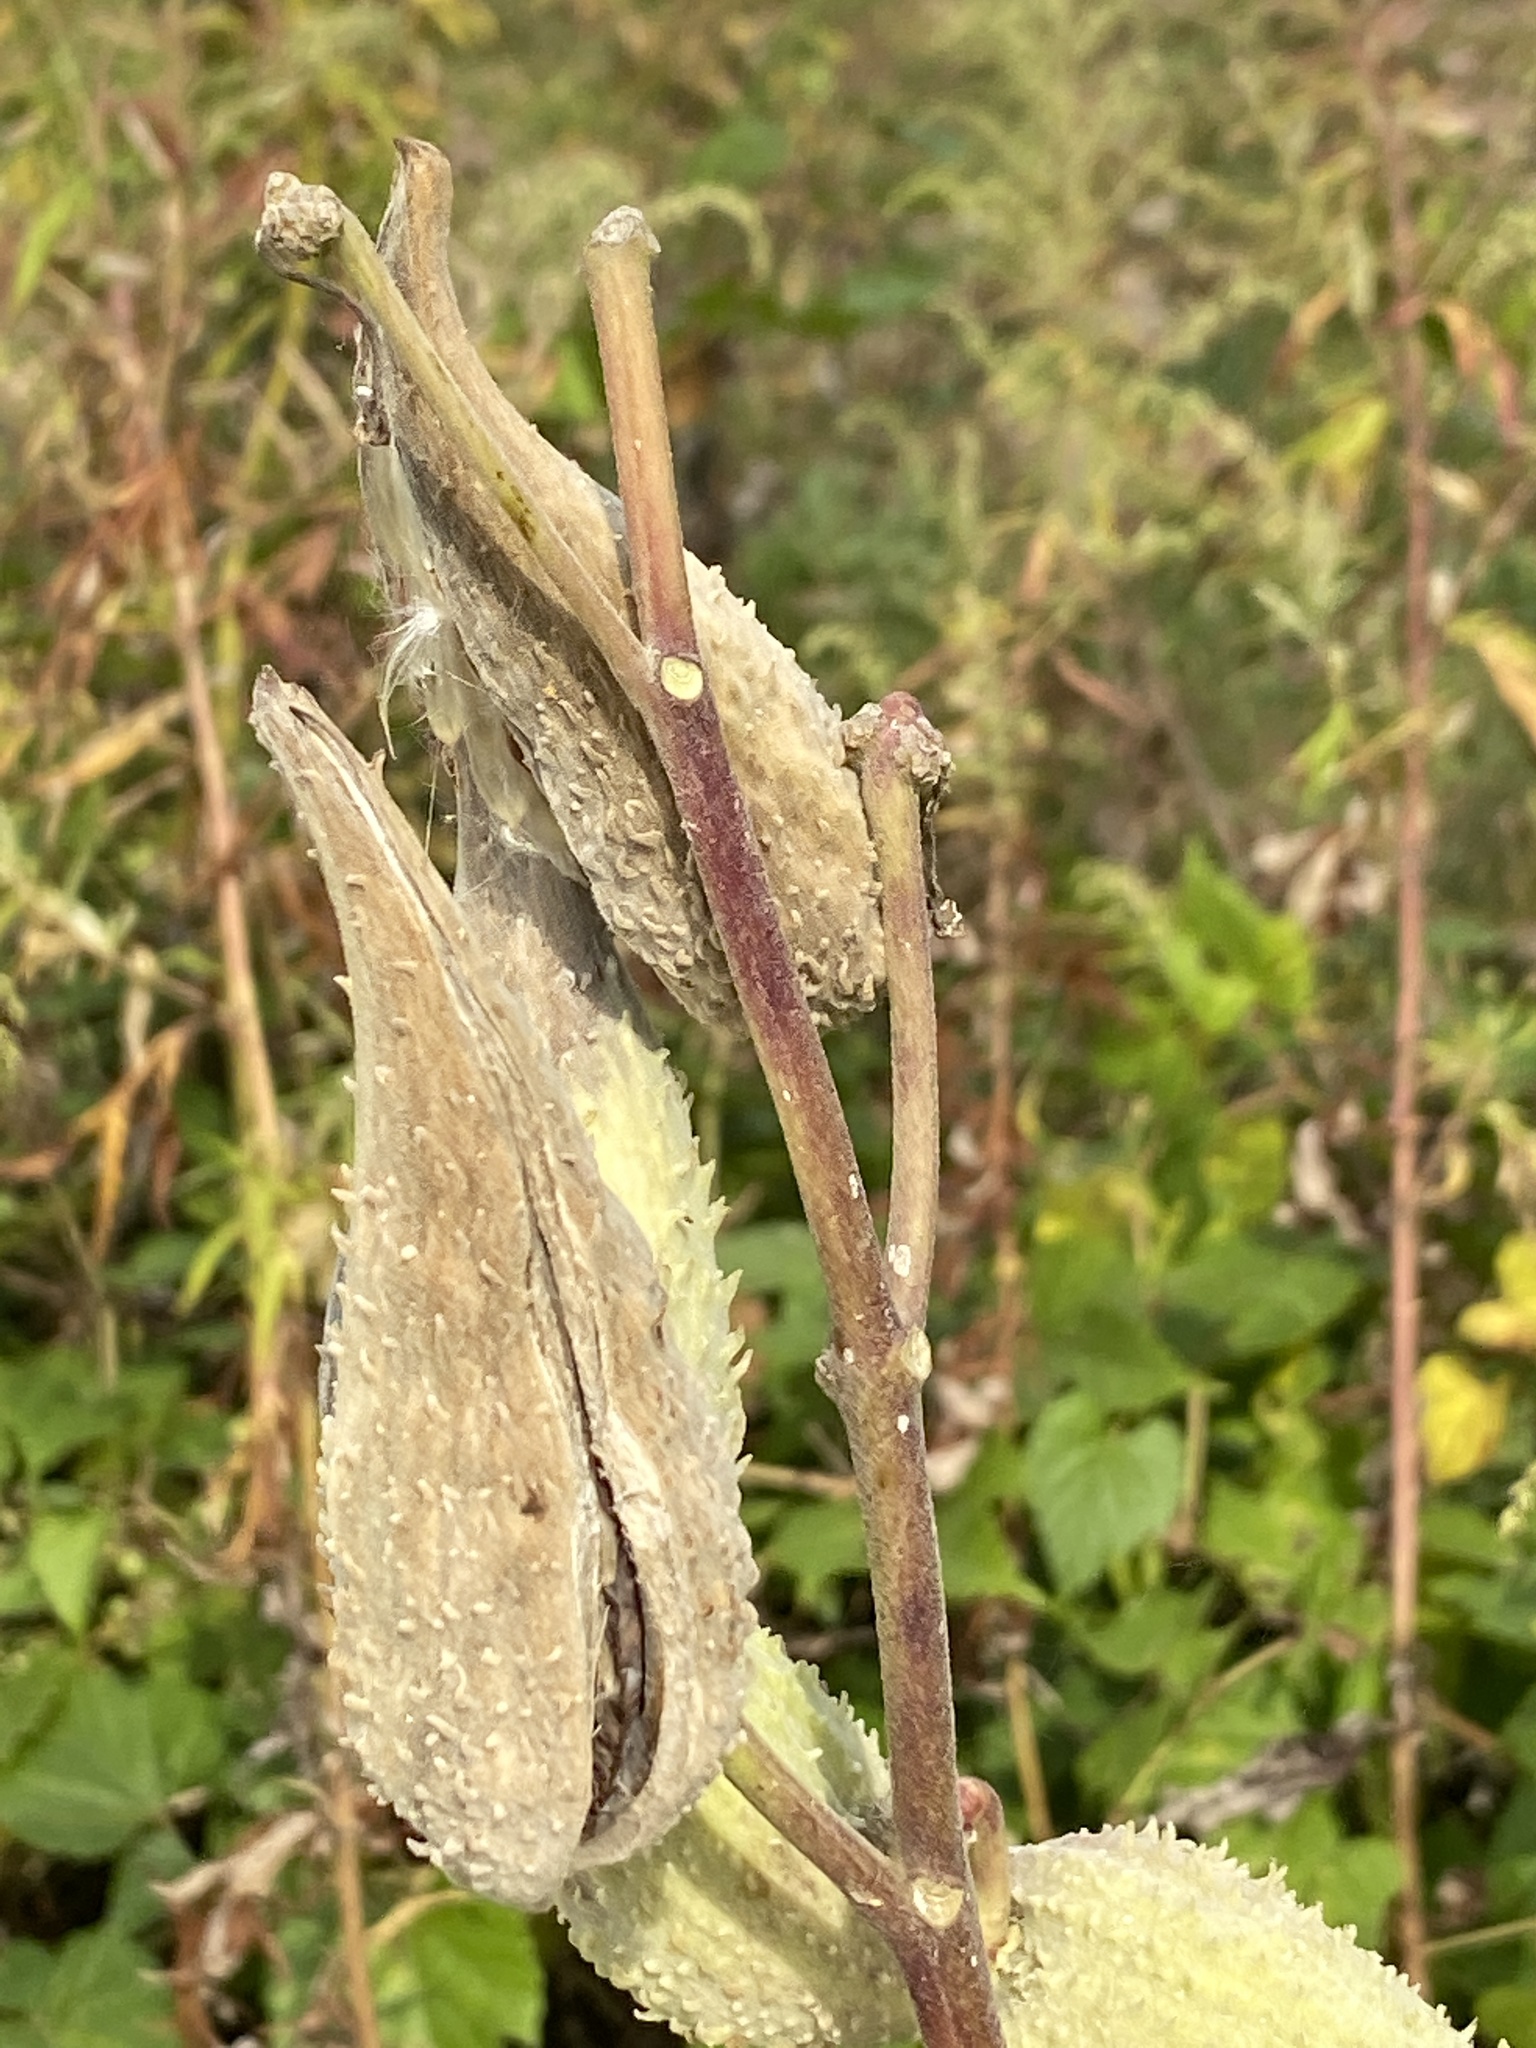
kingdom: Plantae
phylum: Tracheophyta
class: Magnoliopsida
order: Gentianales
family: Apocynaceae
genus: Asclepias
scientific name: Asclepias syriaca
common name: Common milkweed
